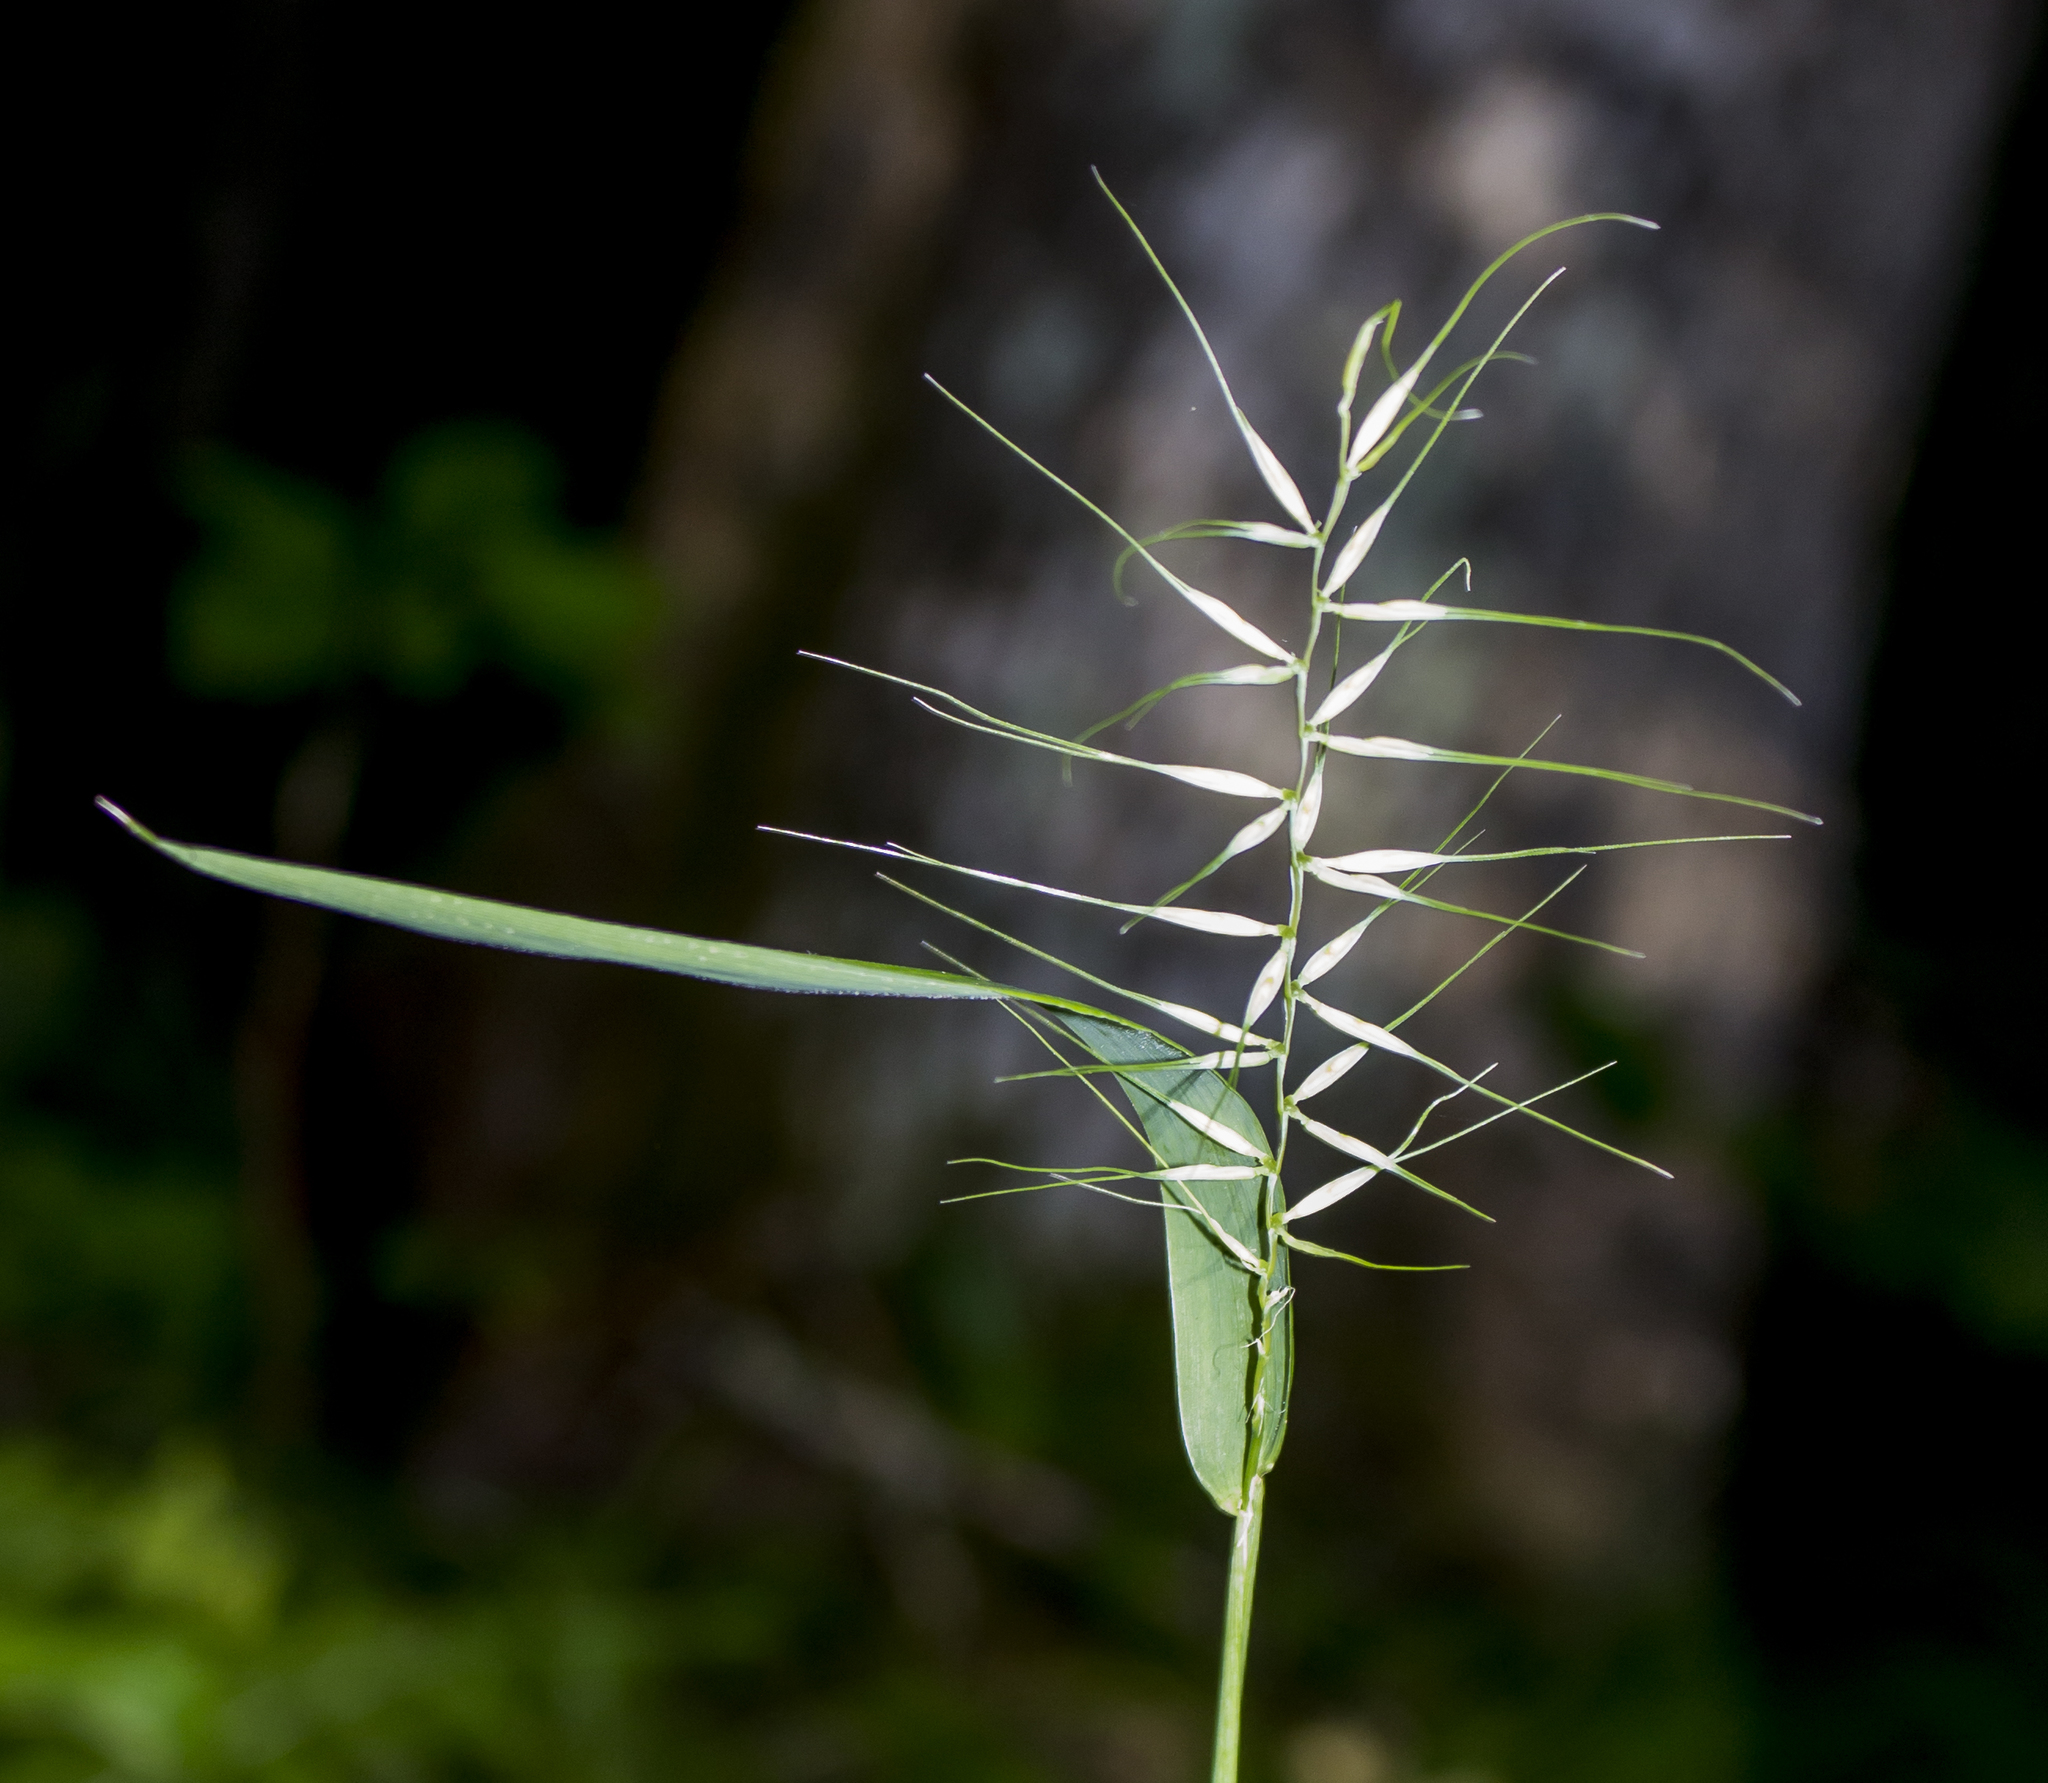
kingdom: Plantae
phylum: Tracheophyta
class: Liliopsida
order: Poales
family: Poaceae
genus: Elymus
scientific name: Elymus hystrix
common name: Bottlebrush grass
